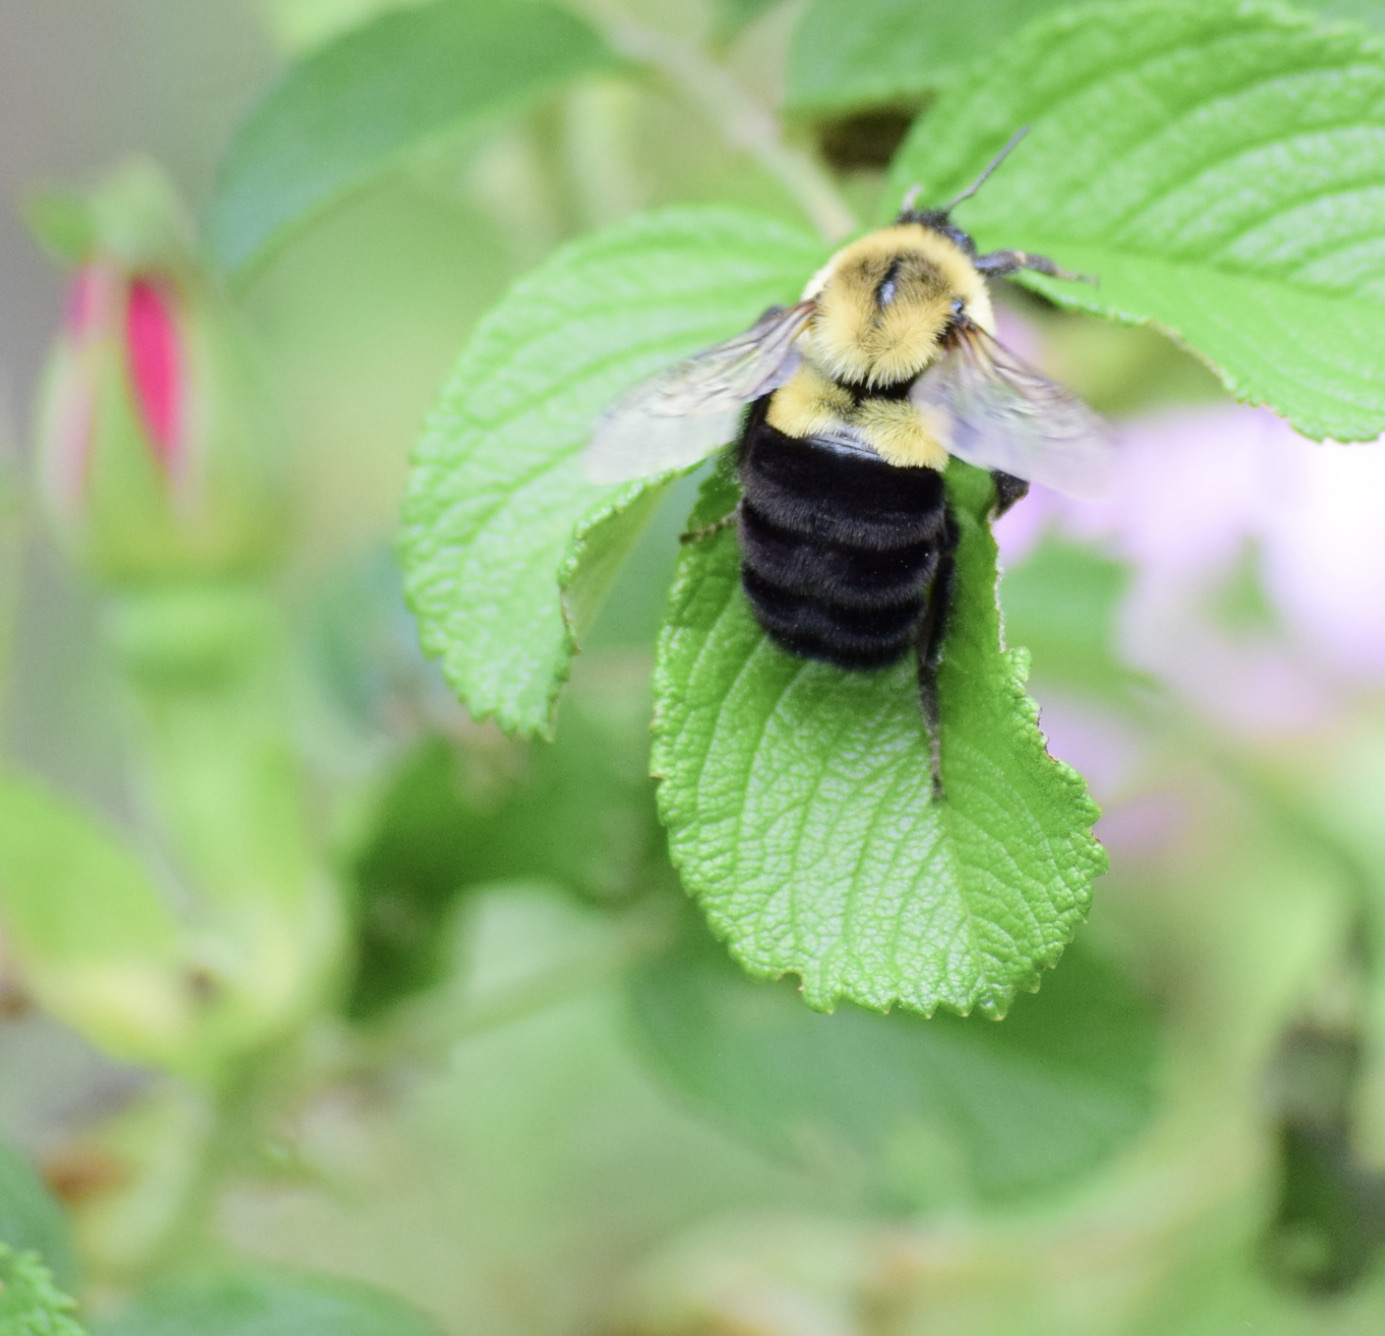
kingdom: Animalia
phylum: Arthropoda
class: Insecta
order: Hymenoptera
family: Apidae
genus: Bombus
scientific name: Bombus impatiens
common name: Common eastern bumble bee
